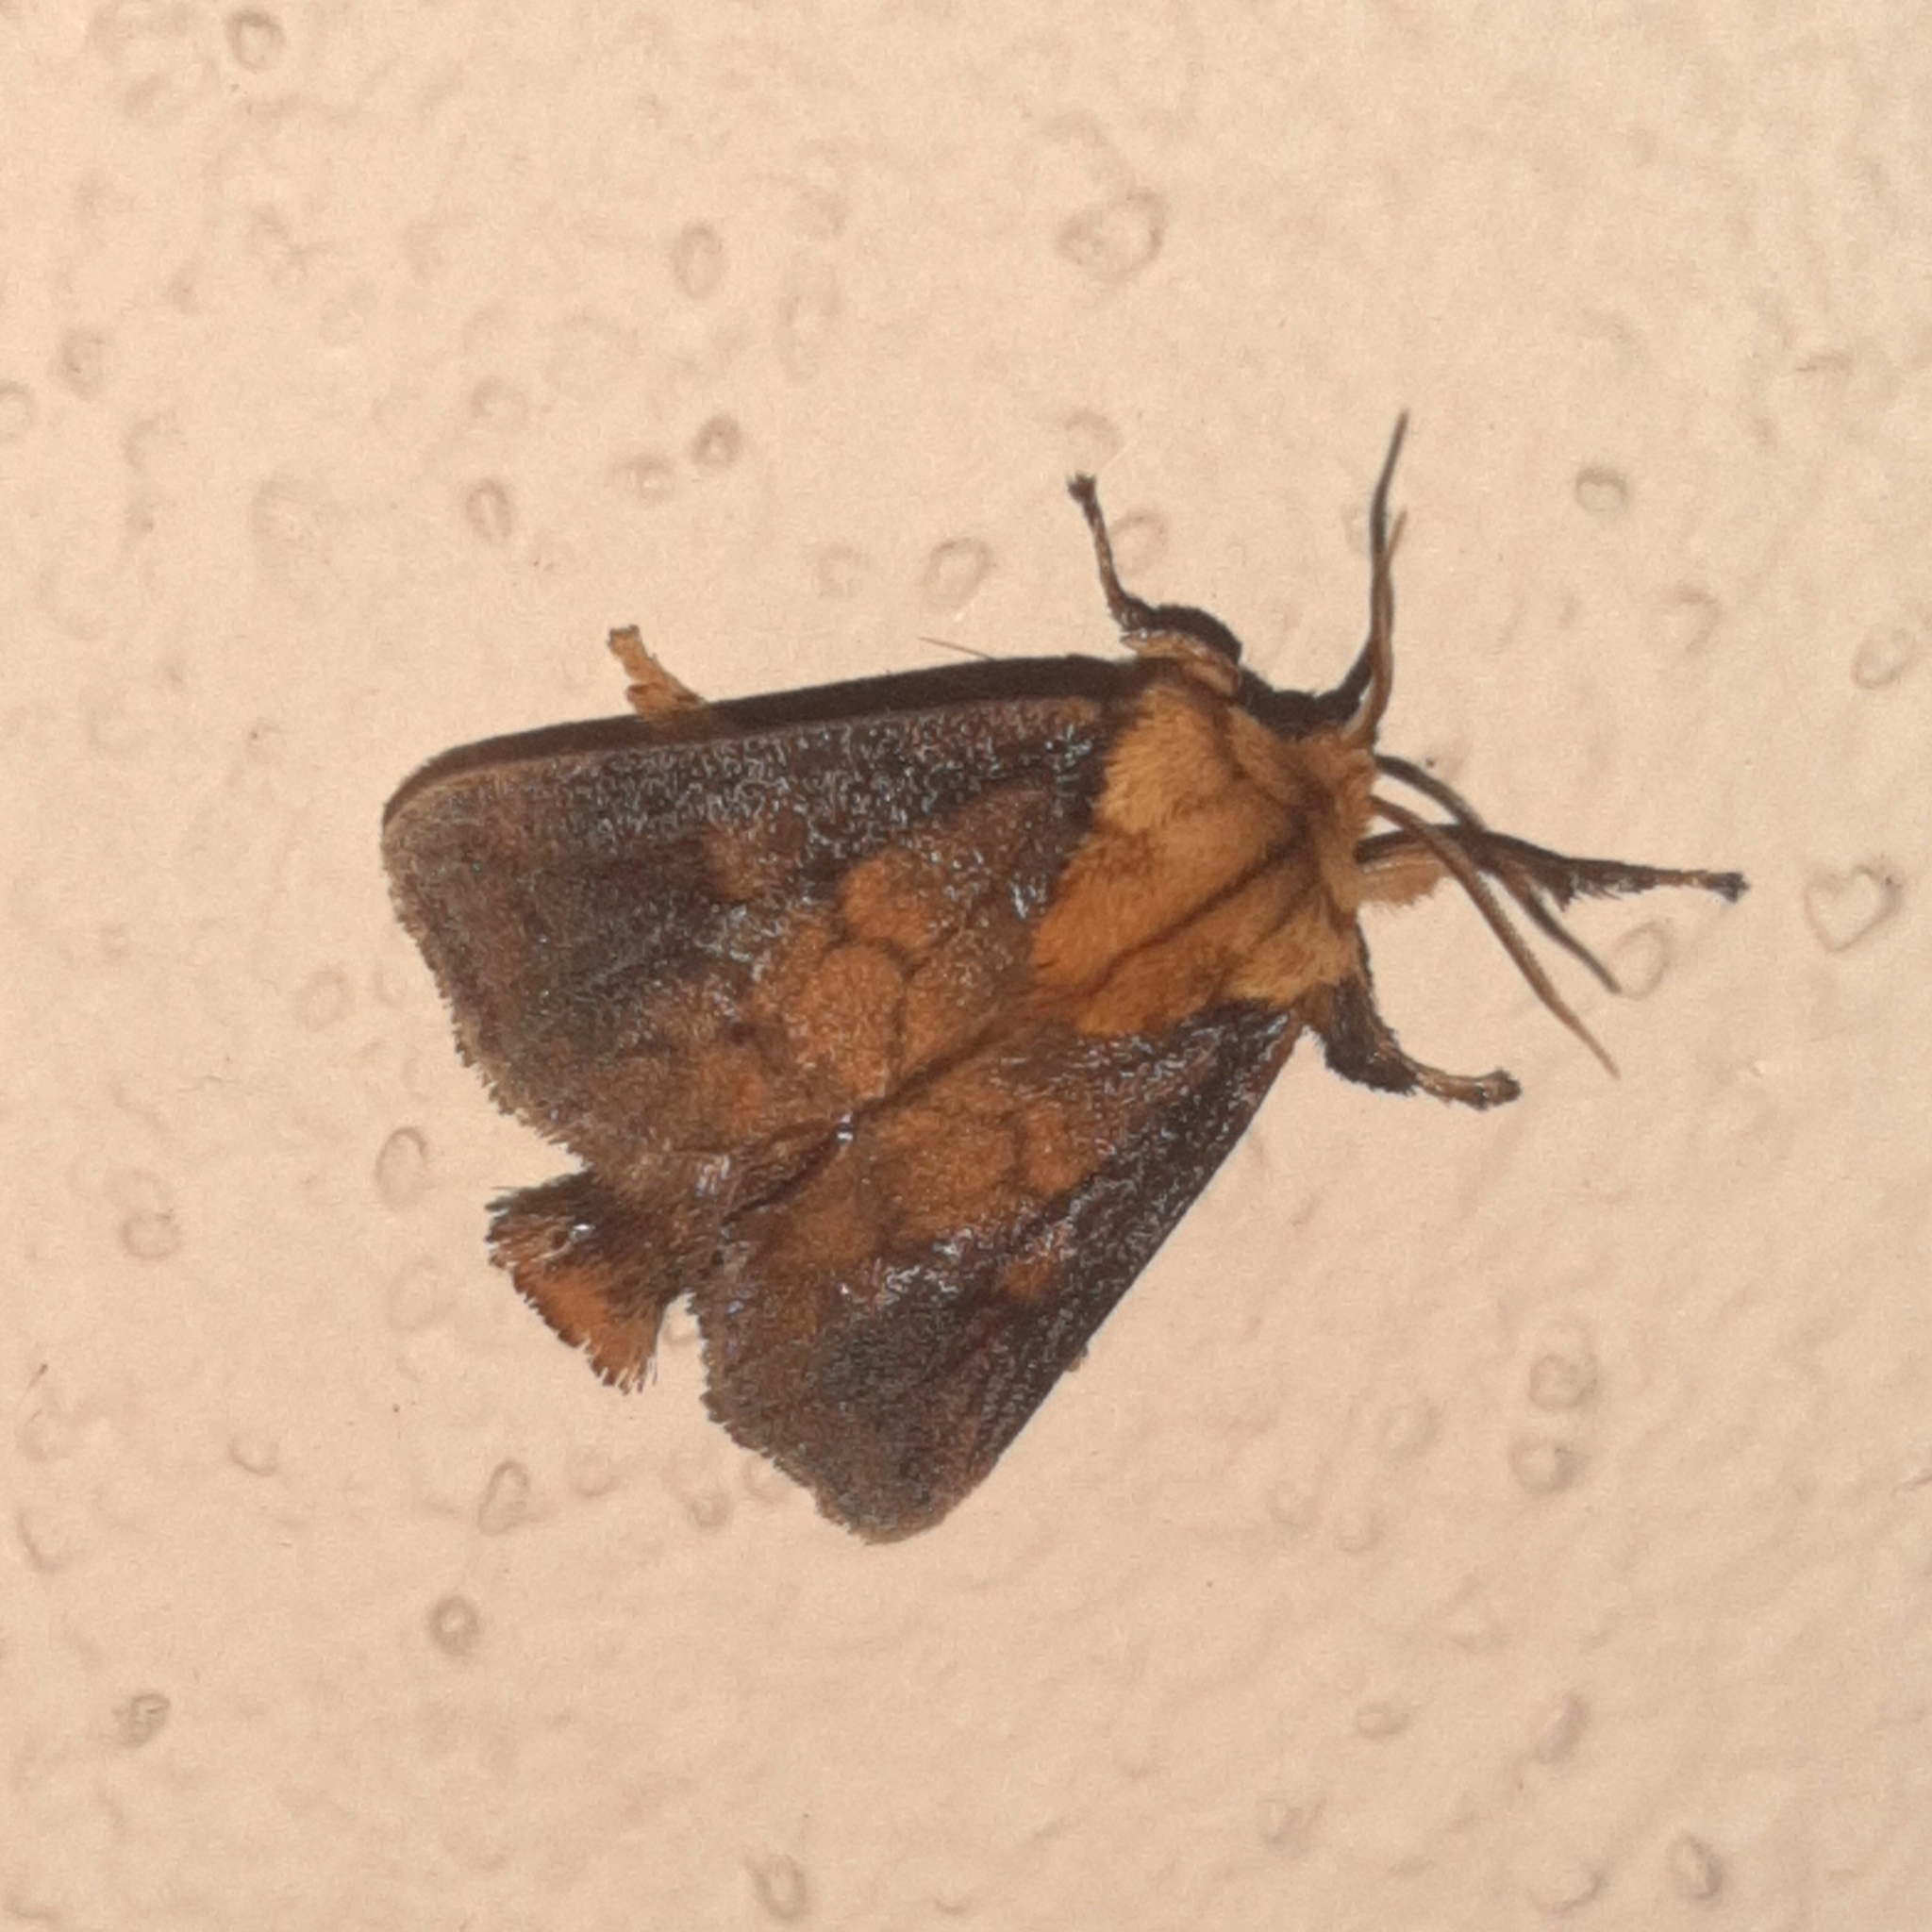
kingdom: Animalia
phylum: Arthropoda
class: Insecta
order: Lepidoptera
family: Limacodidae
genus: Miresa
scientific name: Miresa argentea
